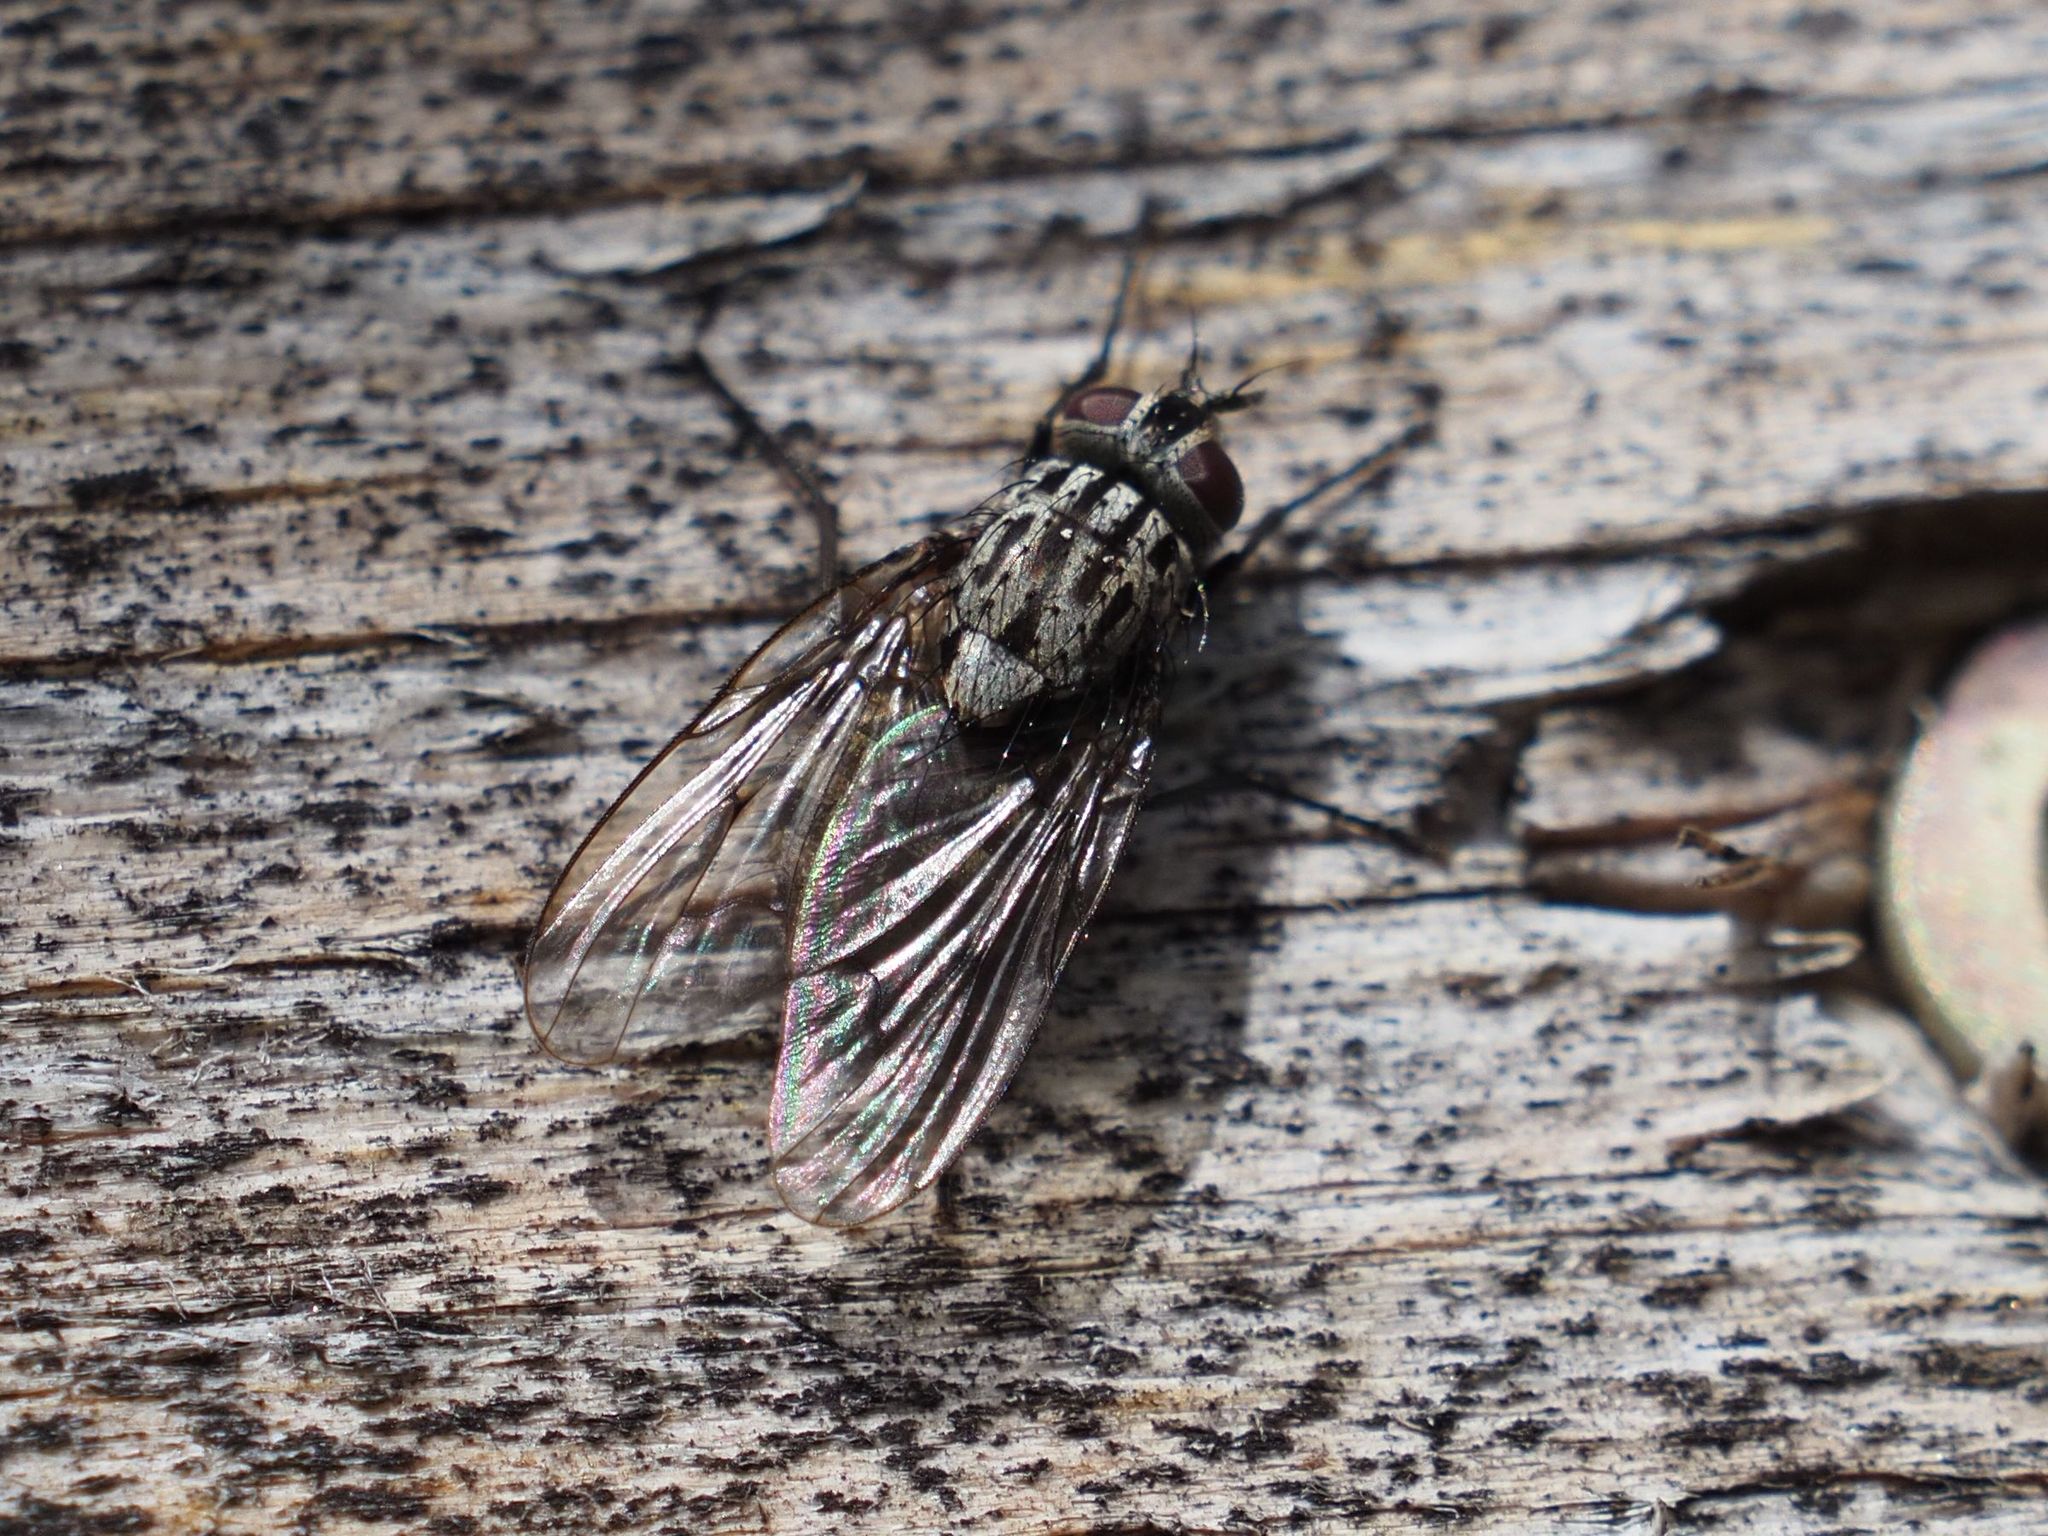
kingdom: Animalia
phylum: Arthropoda
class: Insecta
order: Diptera
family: Muscidae
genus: Phaonia
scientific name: Phaonia trimaculata
